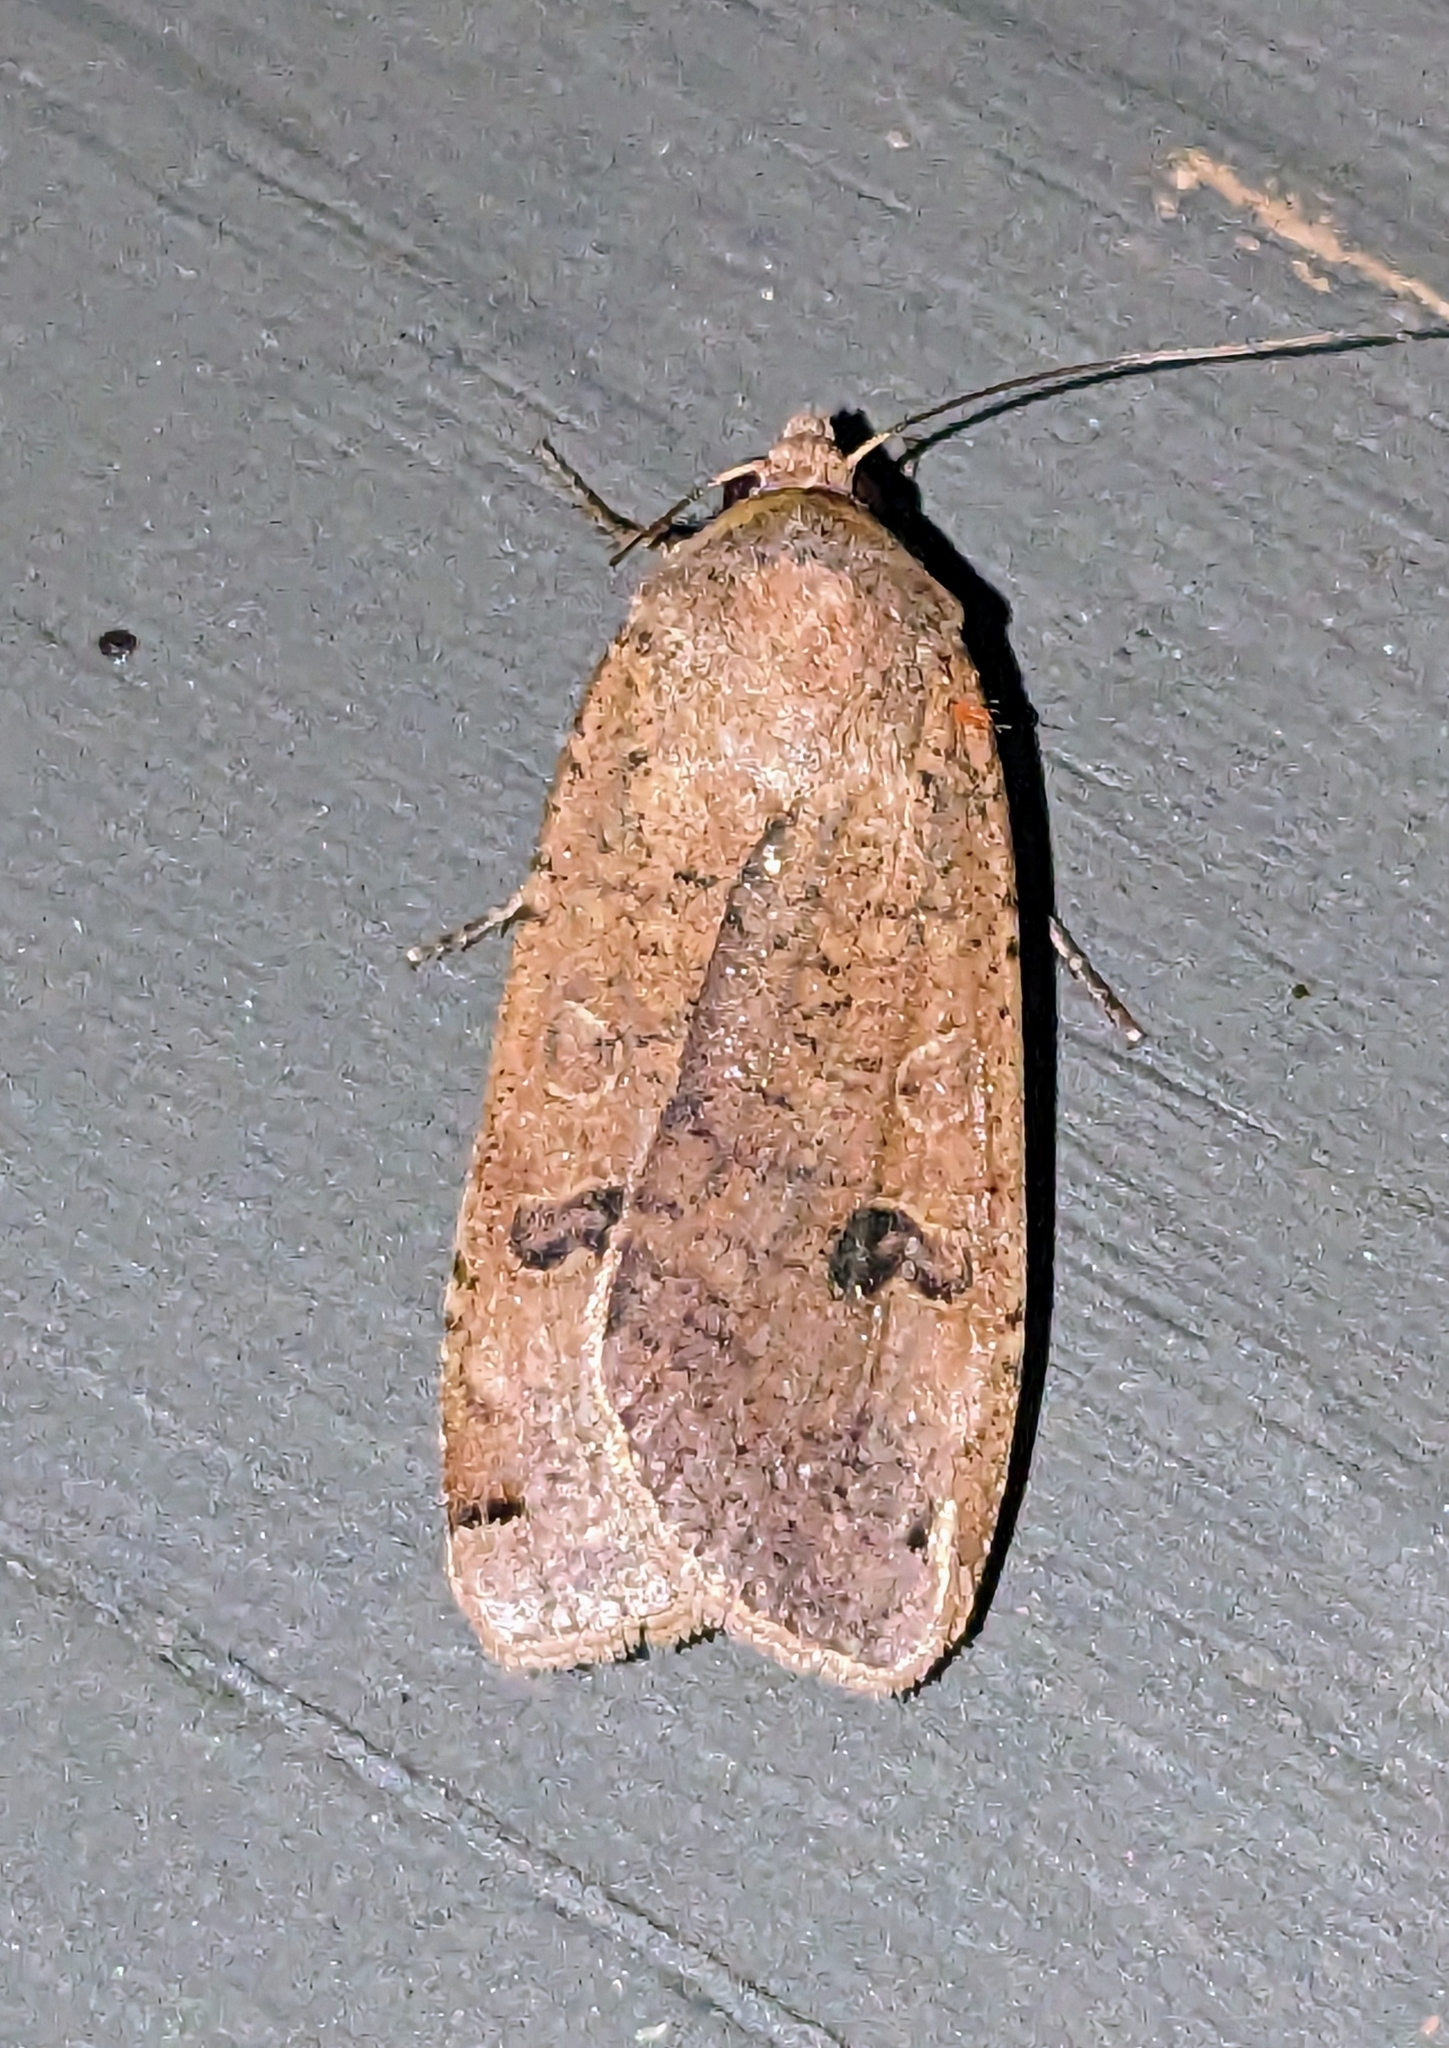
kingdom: Animalia
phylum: Arthropoda
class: Insecta
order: Lepidoptera
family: Noctuidae
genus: Noctua
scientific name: Noctua pronuba
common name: Large yellow underwing
